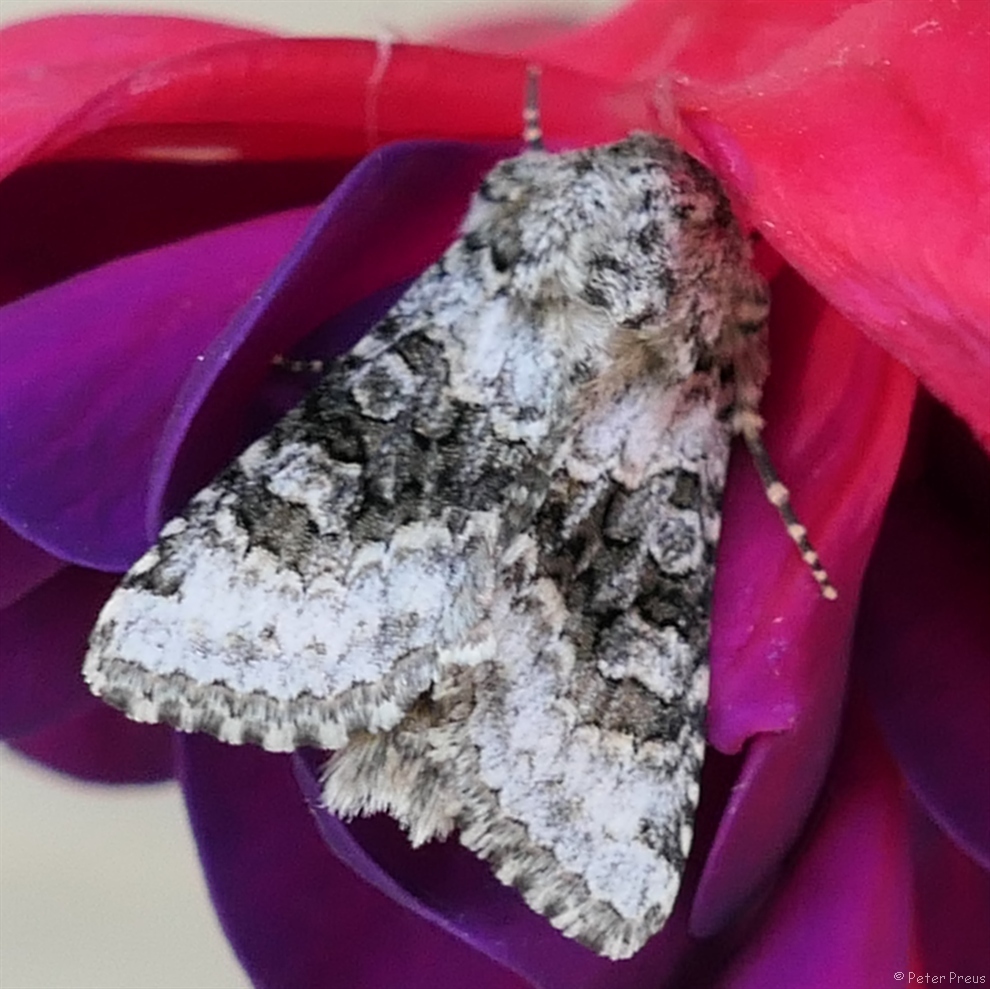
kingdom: Animalia
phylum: Arthropoda
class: Insecta
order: Lepidoptera
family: Noctuidae
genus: Hecatera
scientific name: Hecatera bicolorata
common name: Broad-barred white
